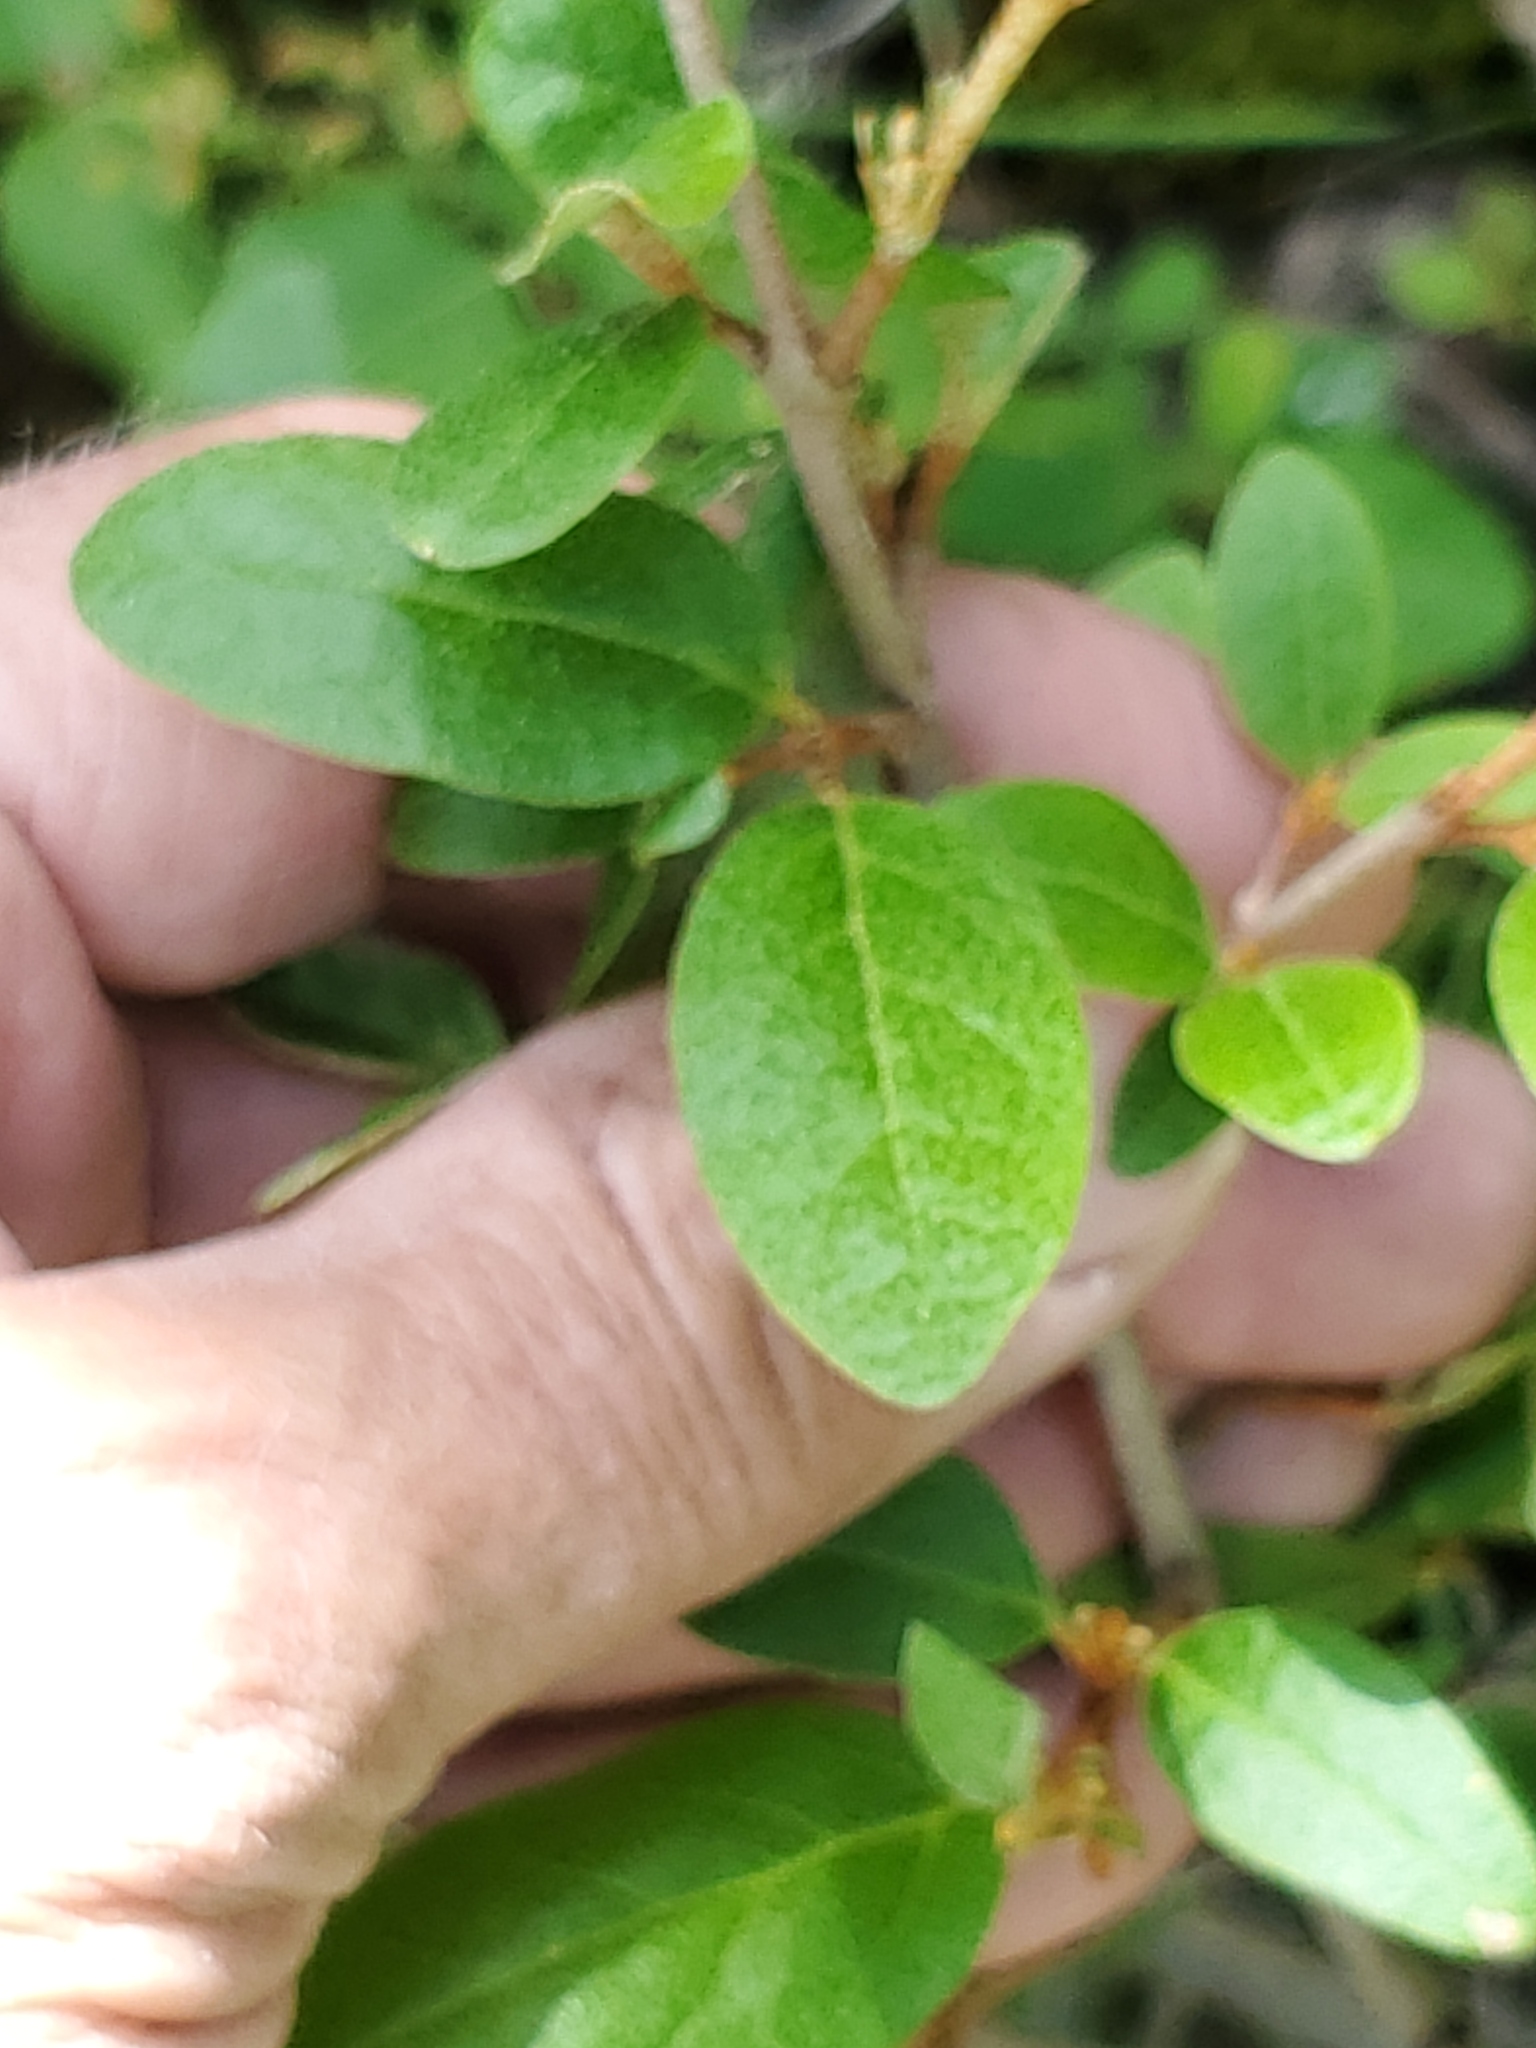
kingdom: Plantae
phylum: Tracheophyta
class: Magnoliopsida
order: Rosales
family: Elaeagnaceae
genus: Shepherdia
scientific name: Shepherdia canadensis
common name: Soapberry
